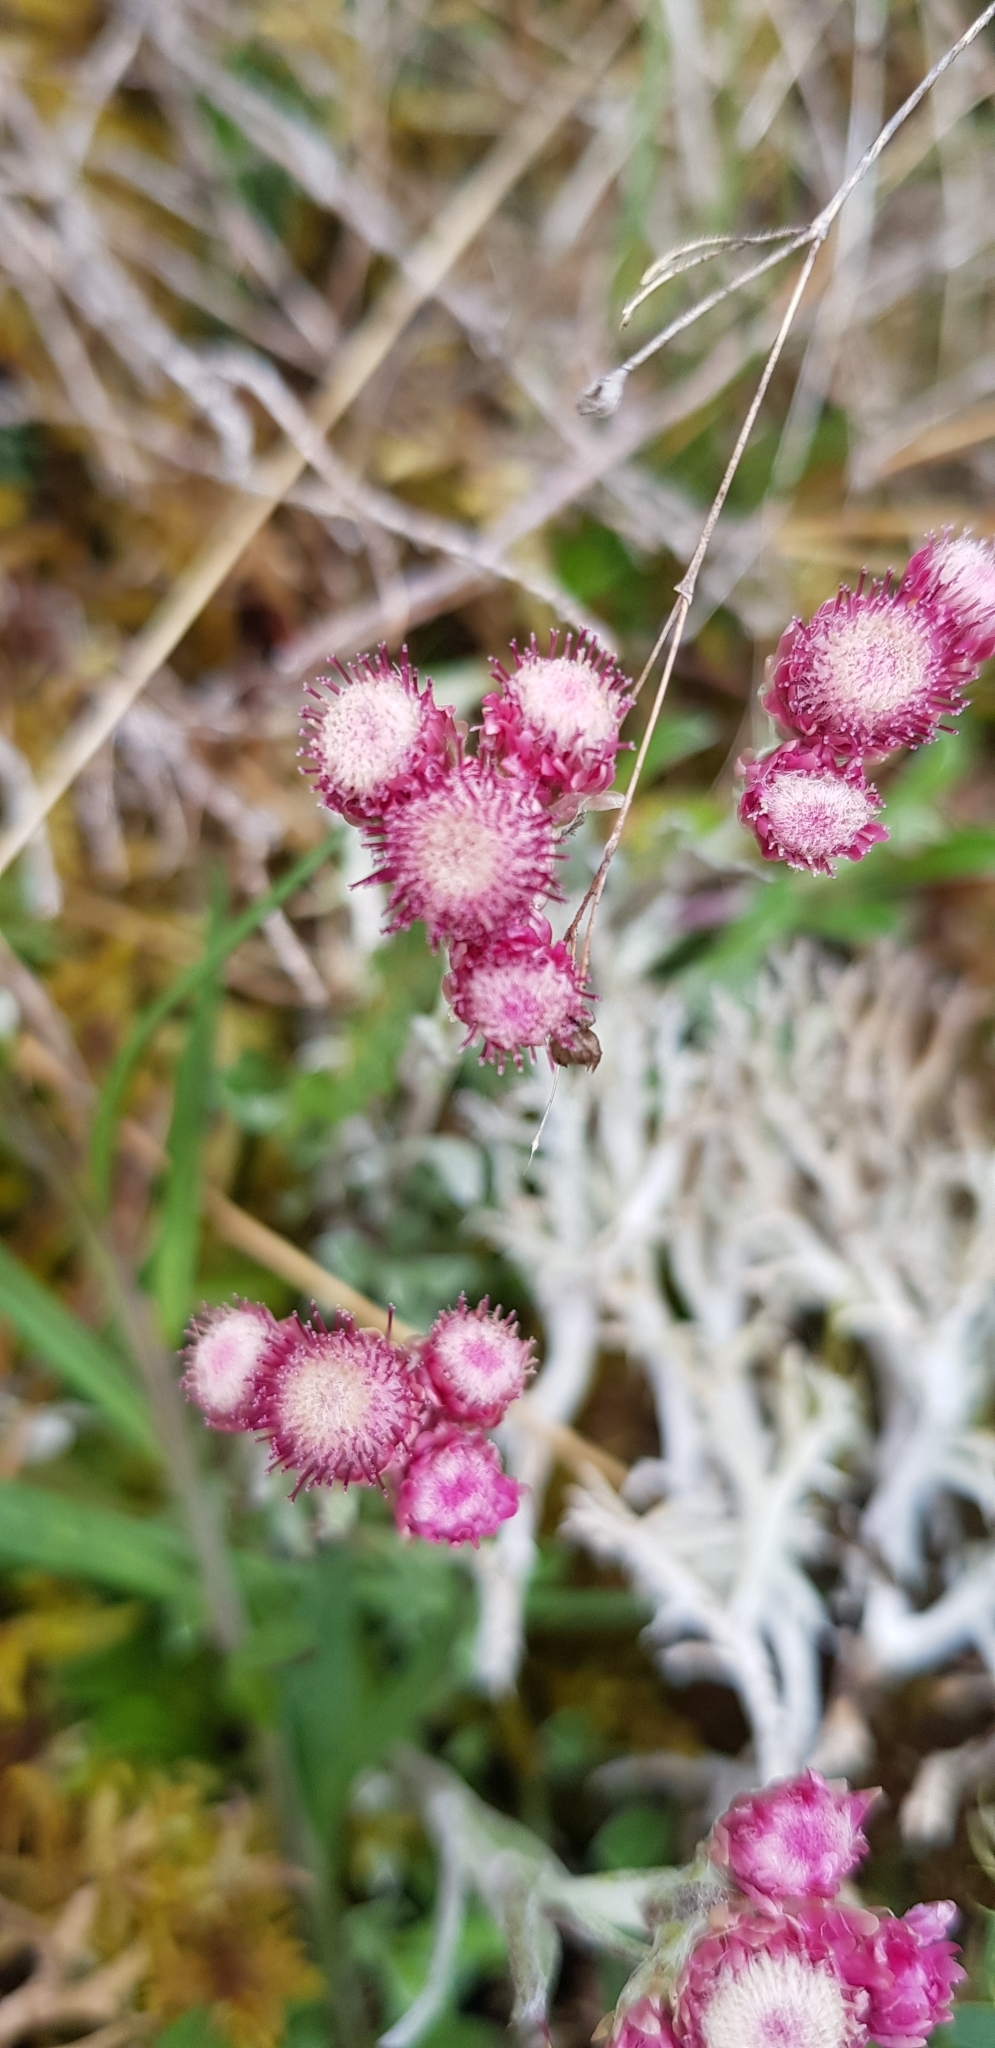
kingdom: Plantae
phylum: Tracheophyta
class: Magnoliopsida
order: Asterales
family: Asteraceae
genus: Antennaria
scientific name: Antennaria dioica
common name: Mountain everlasting
